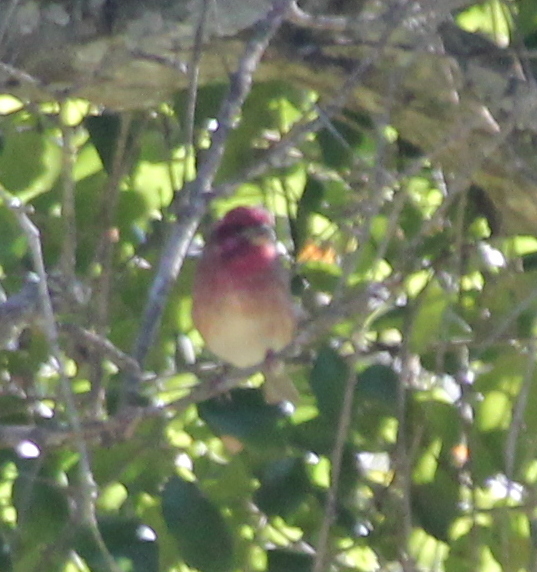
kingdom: Animalia
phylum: Chordata
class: Aves
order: Passeriformes
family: Fringillidae
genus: Haemorhous
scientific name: Haemorhous purpureus
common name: Purple finch
